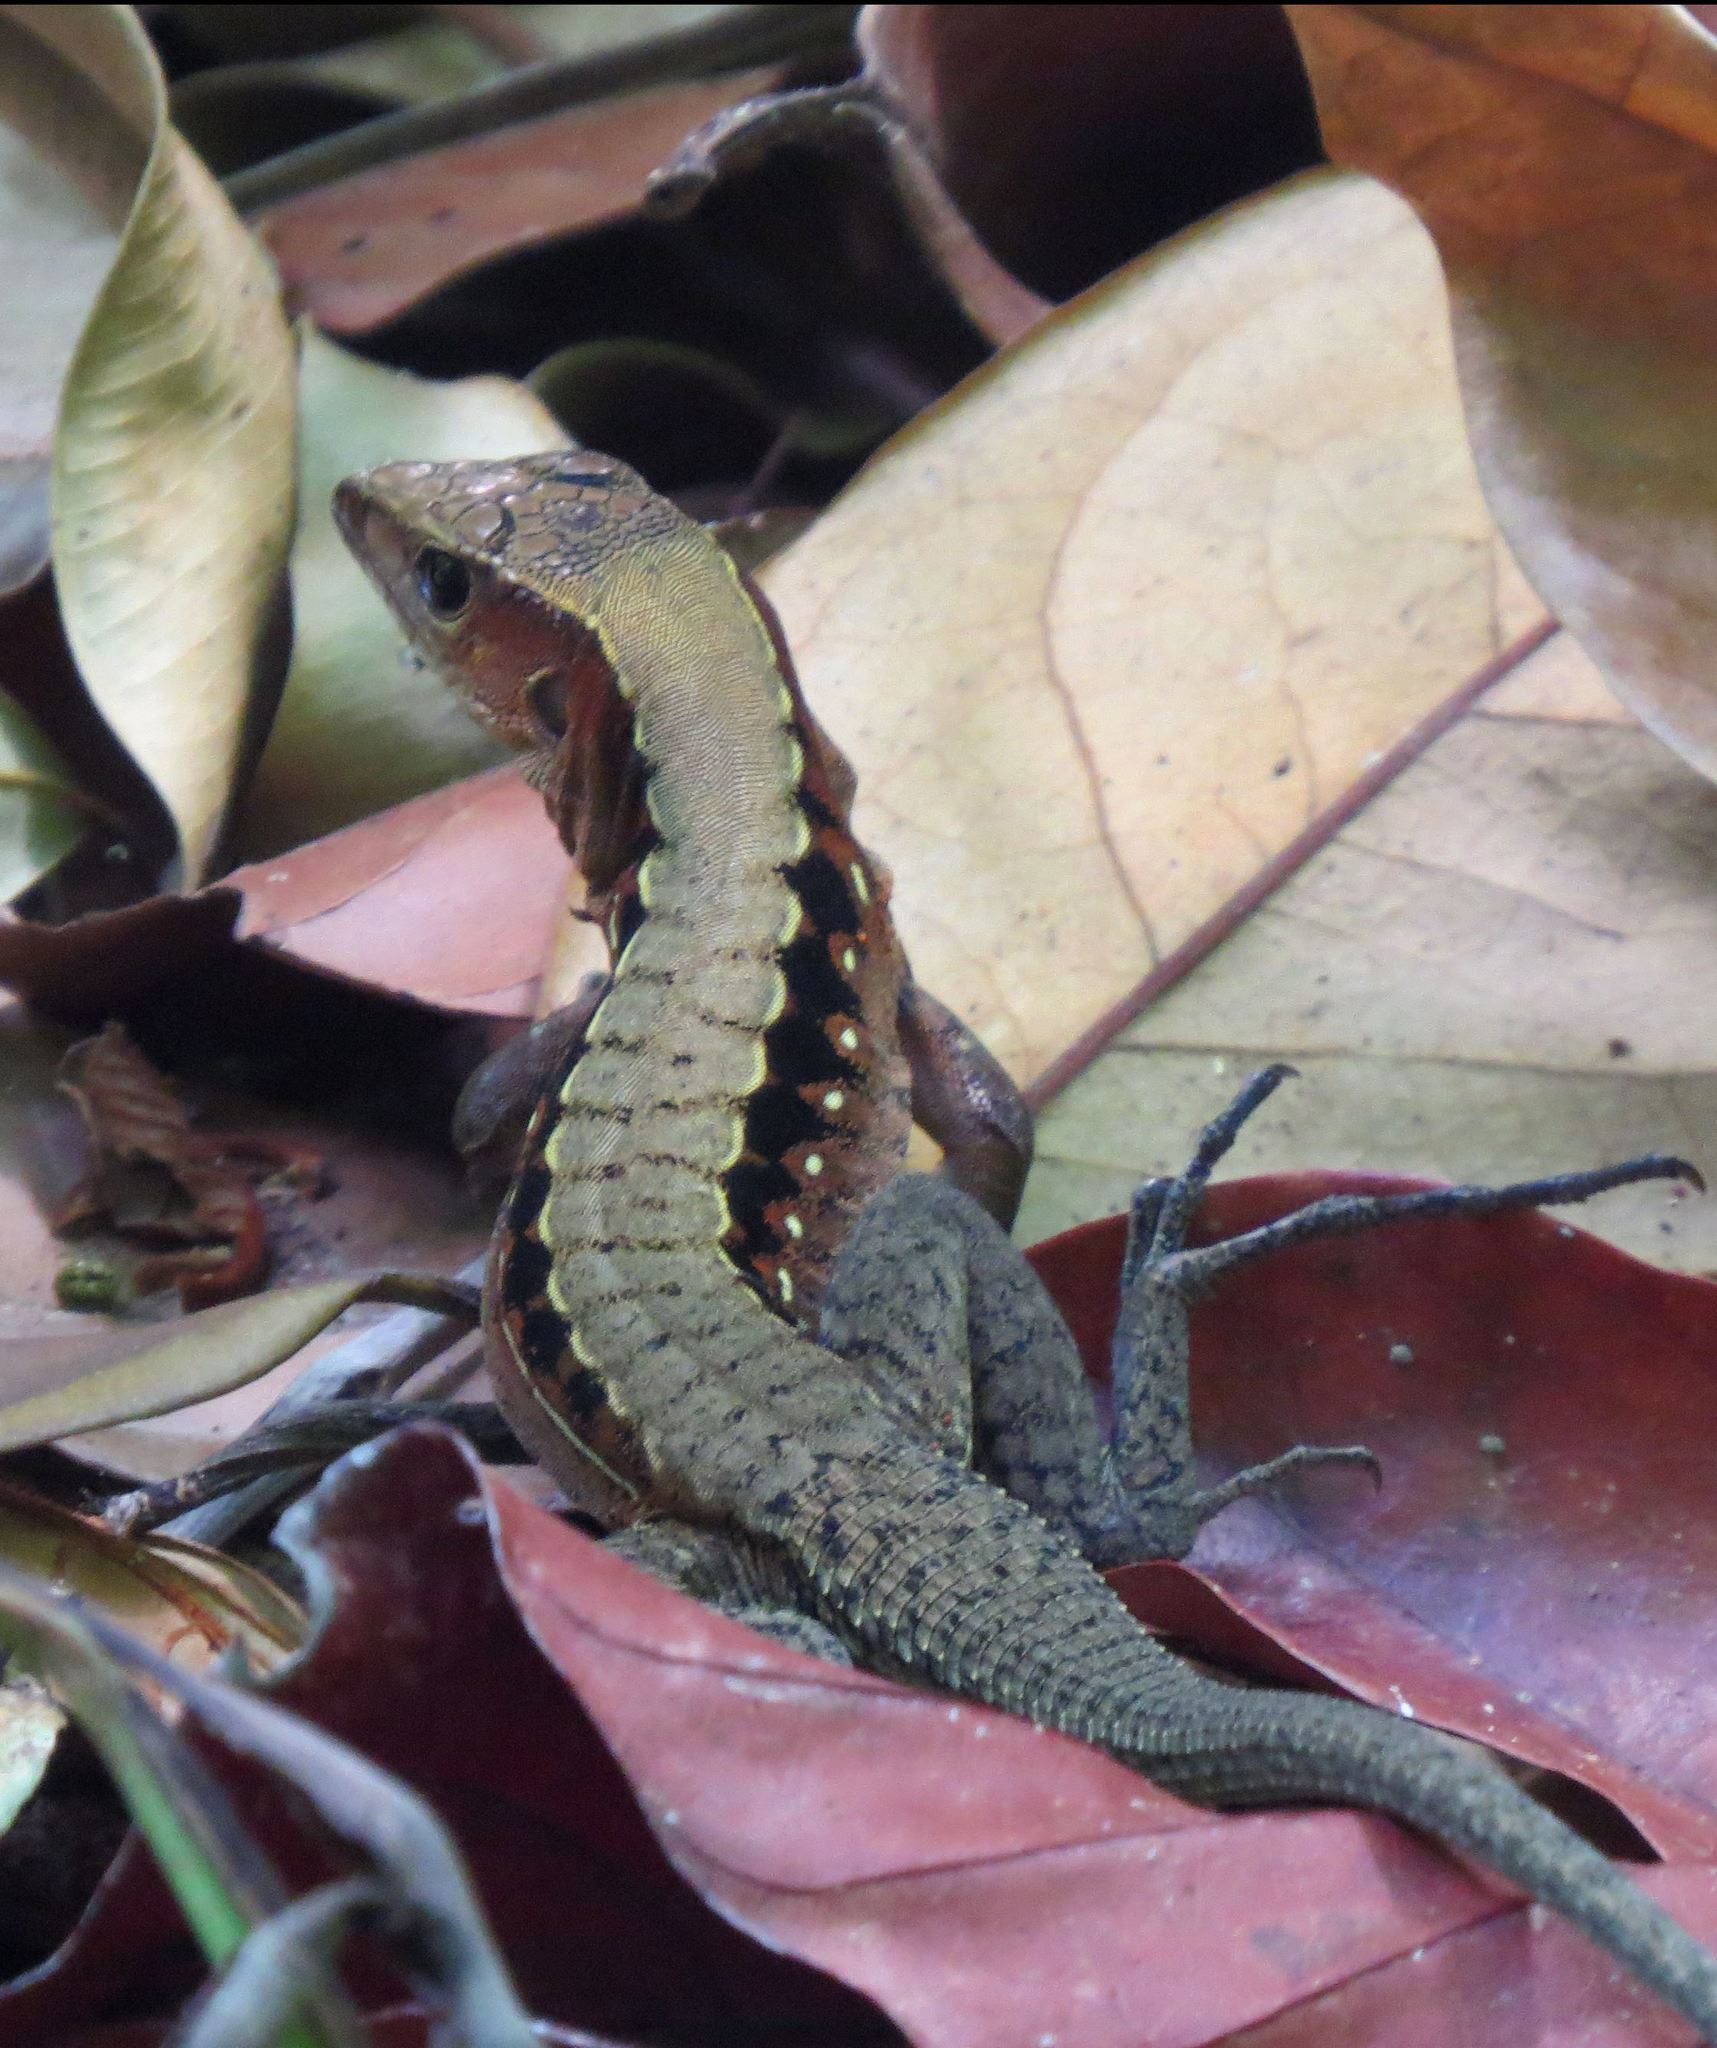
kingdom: Animalia
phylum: Chordata
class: Squamata
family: Teiidae
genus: Holcosus
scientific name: Holcosus leptophrys
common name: Delicate ameiva
